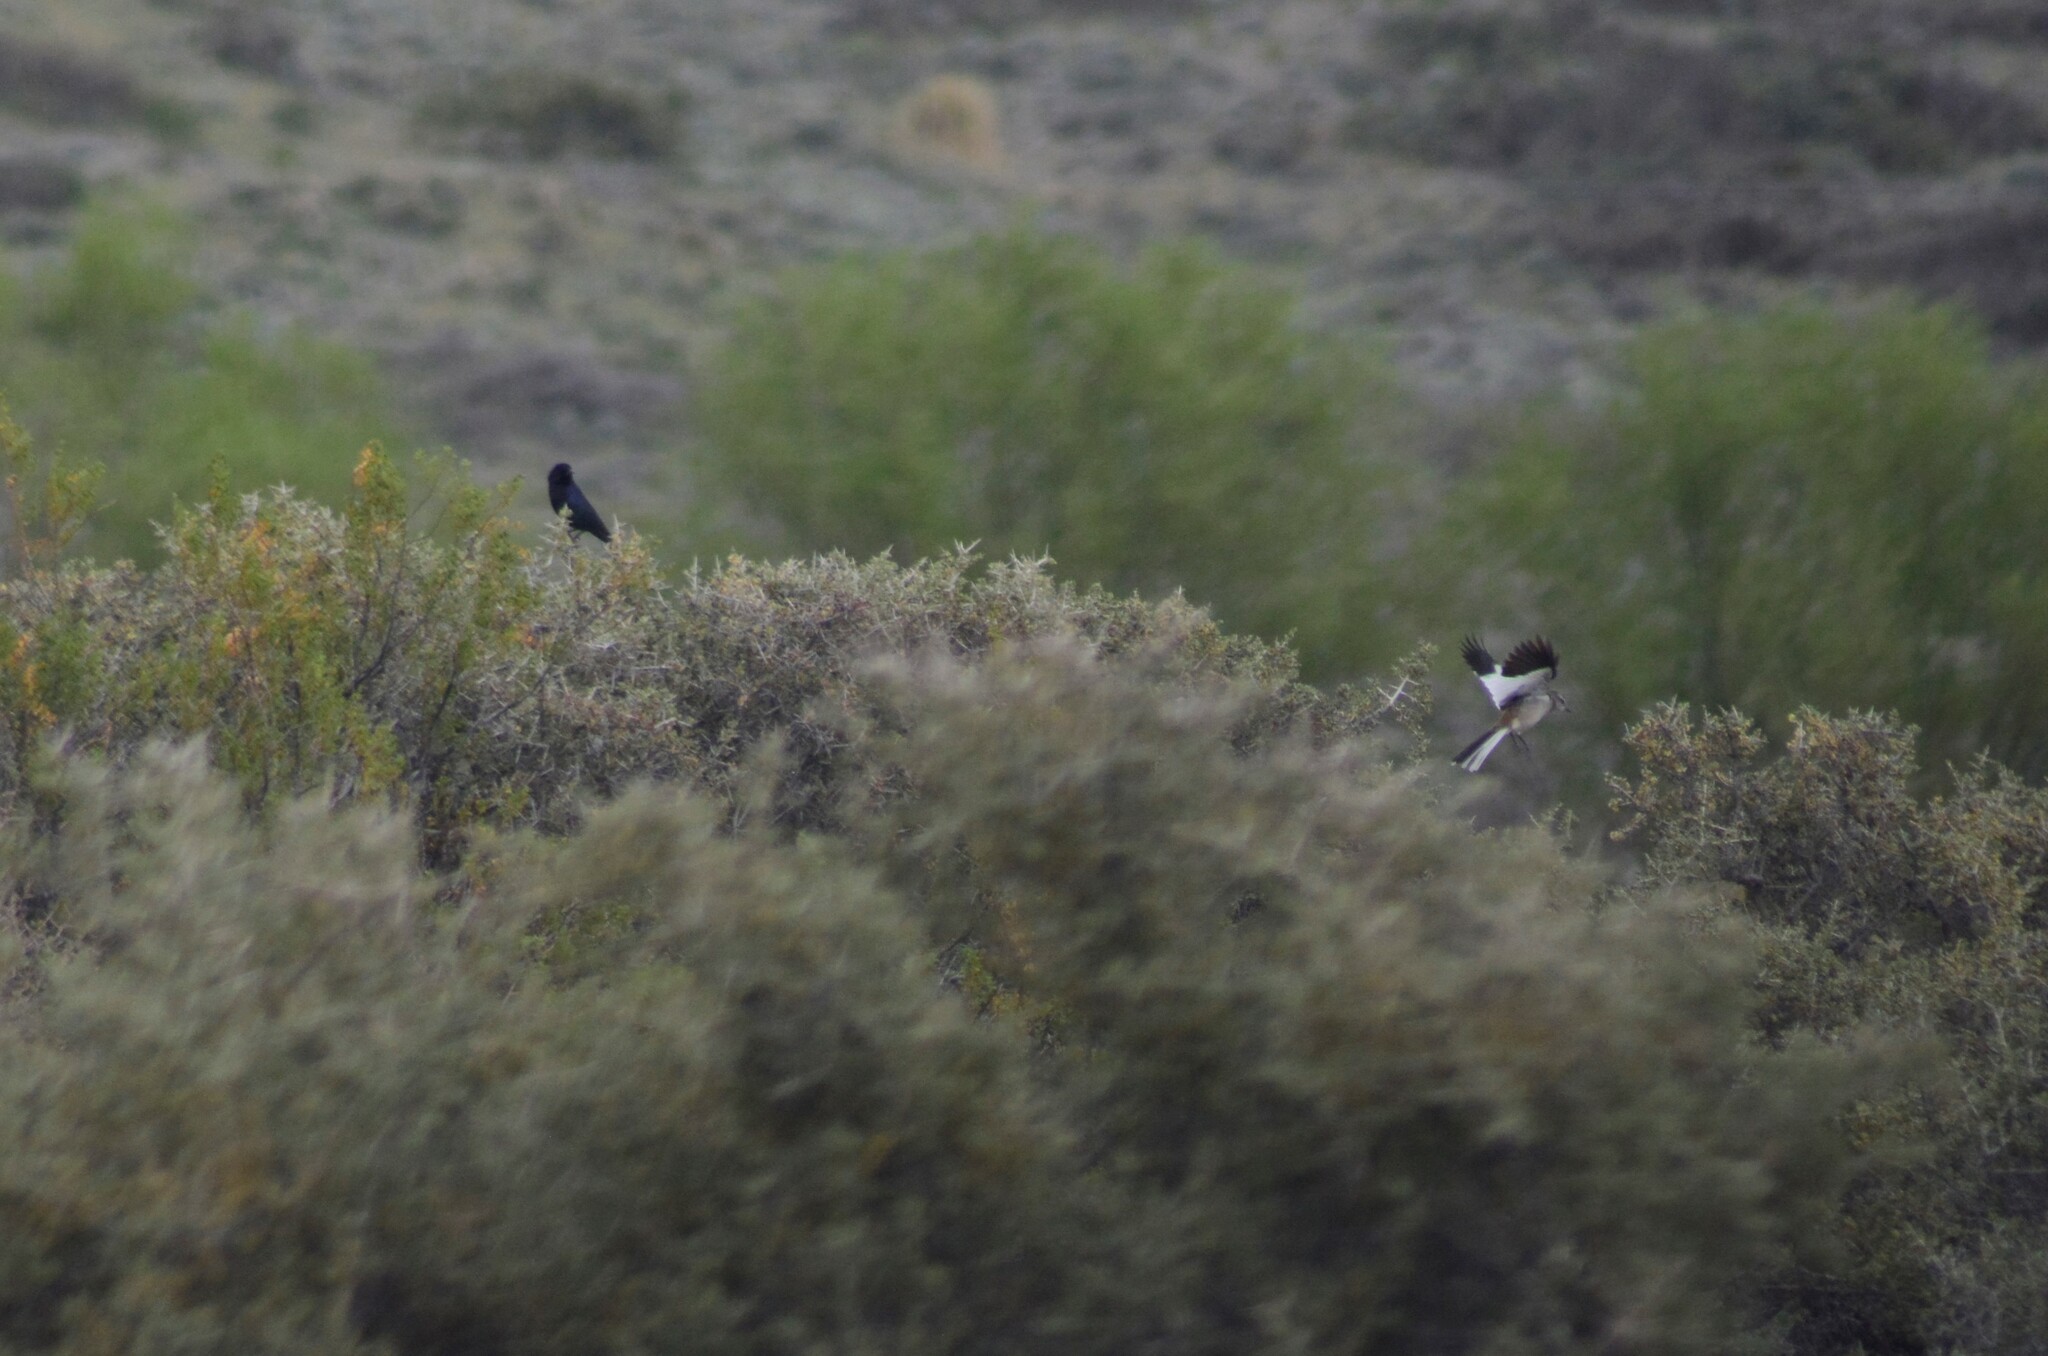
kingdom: Animalia
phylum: Chordata
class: Aves
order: Passeriformes
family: Mimidae
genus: Mimus
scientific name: Mimus triurus
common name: White-banded mockingbird
